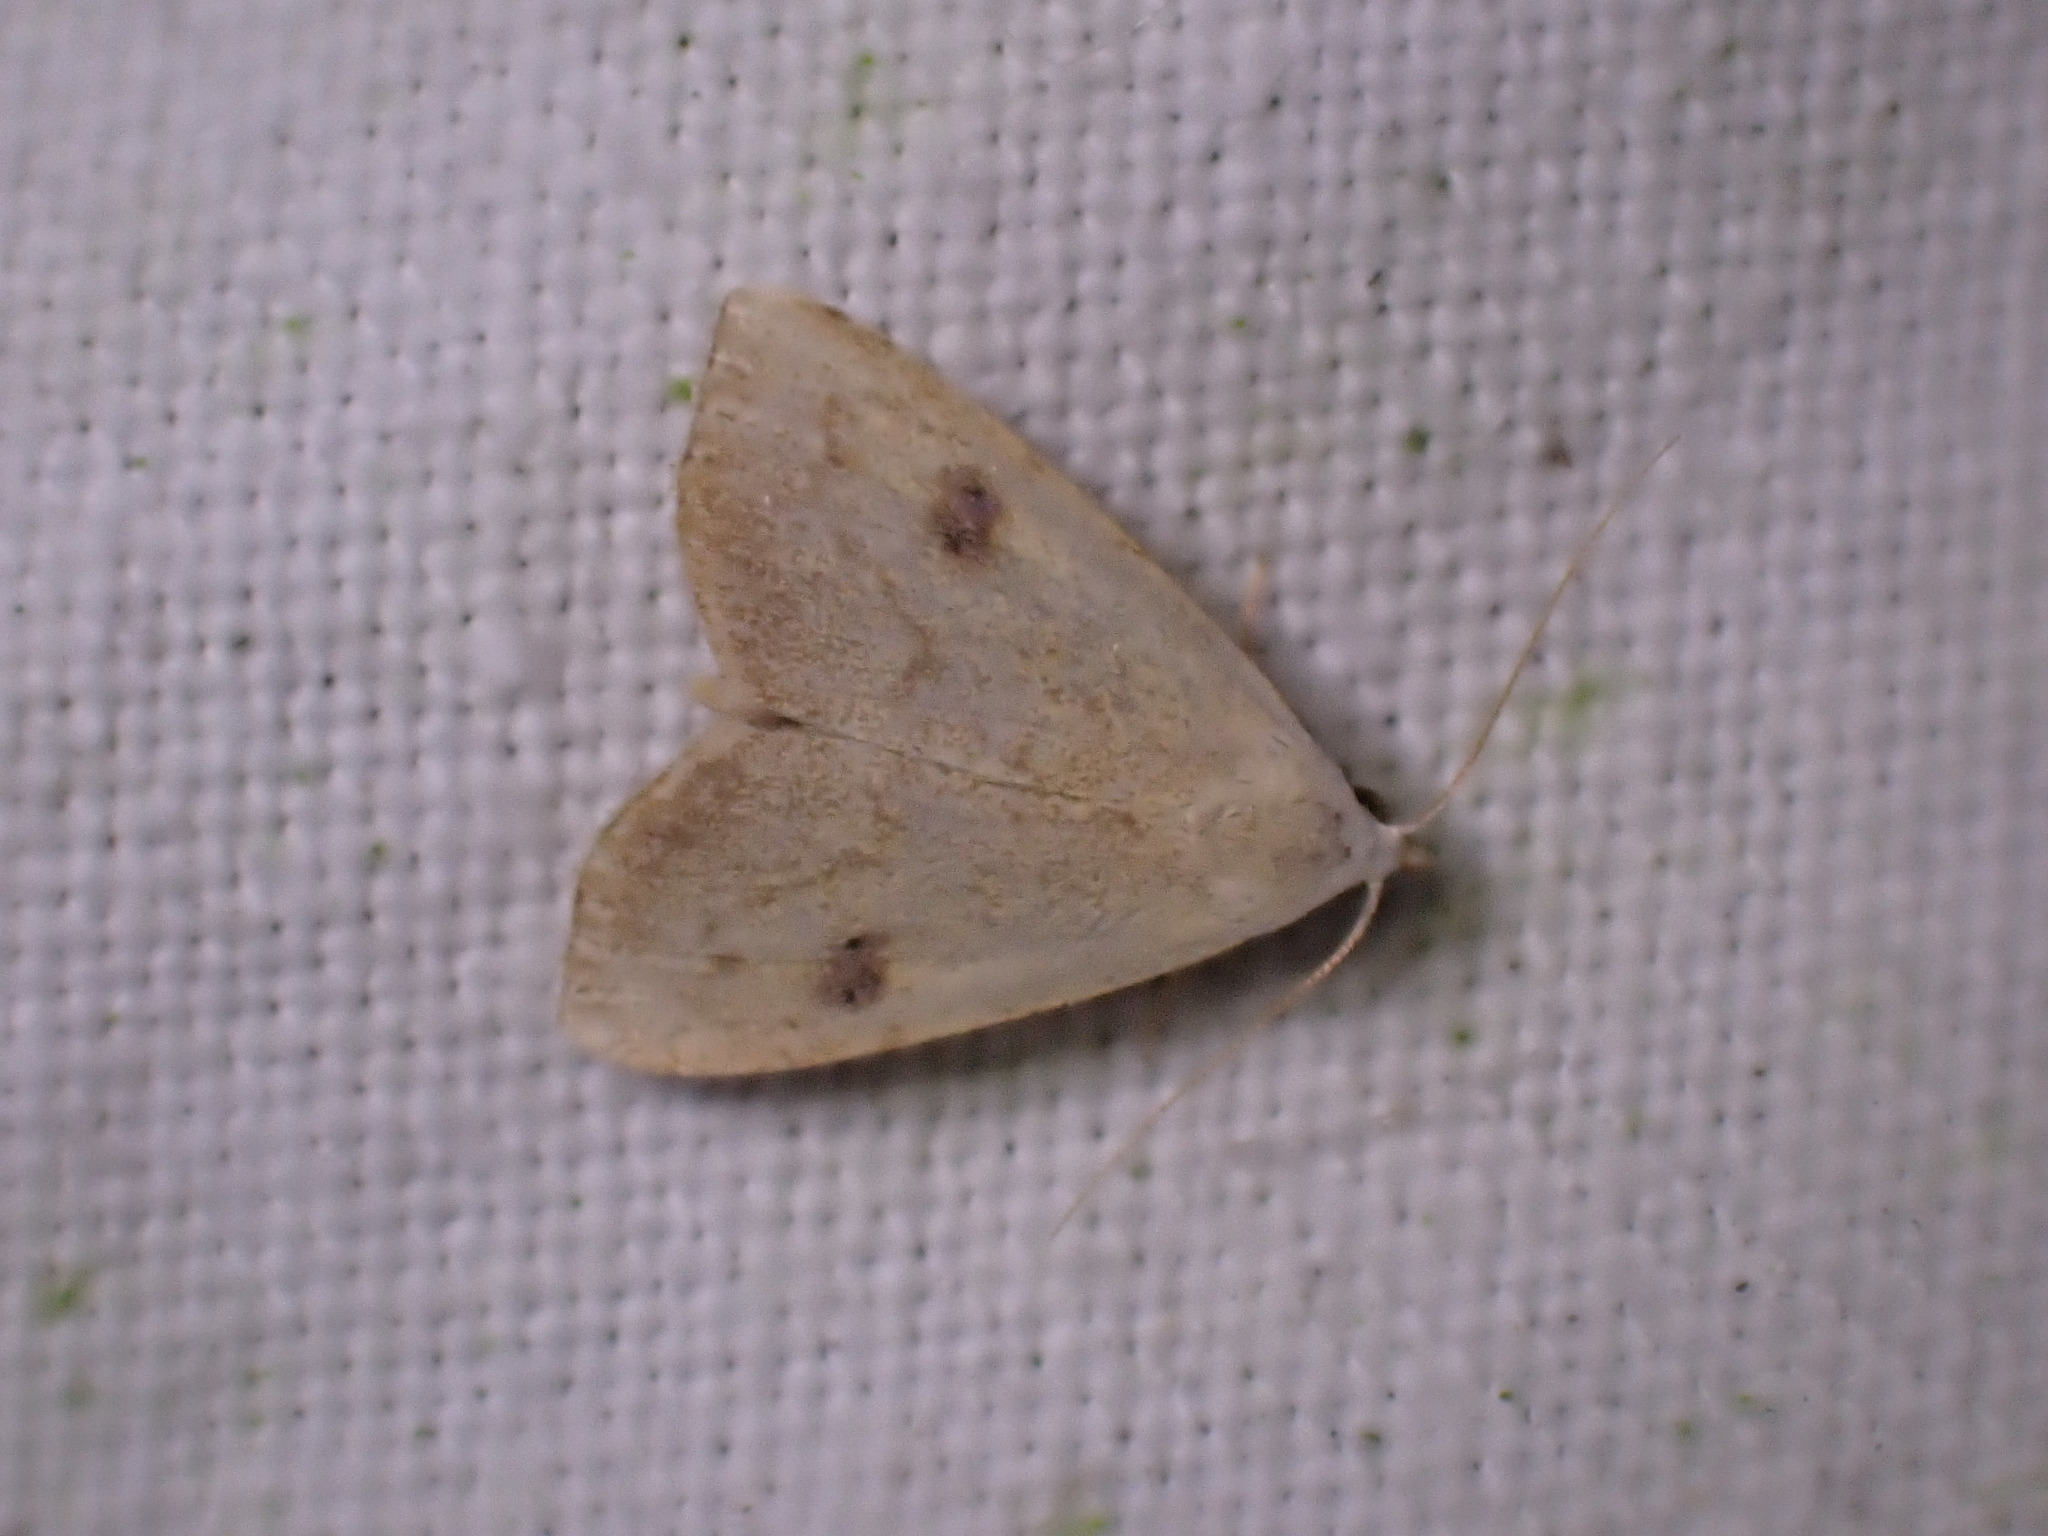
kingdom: Animalia
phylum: Arthropoda
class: Insecta
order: Lepidoptera
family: Erebidae
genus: Rivula
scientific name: Rivula sericealis
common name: Straw dot
